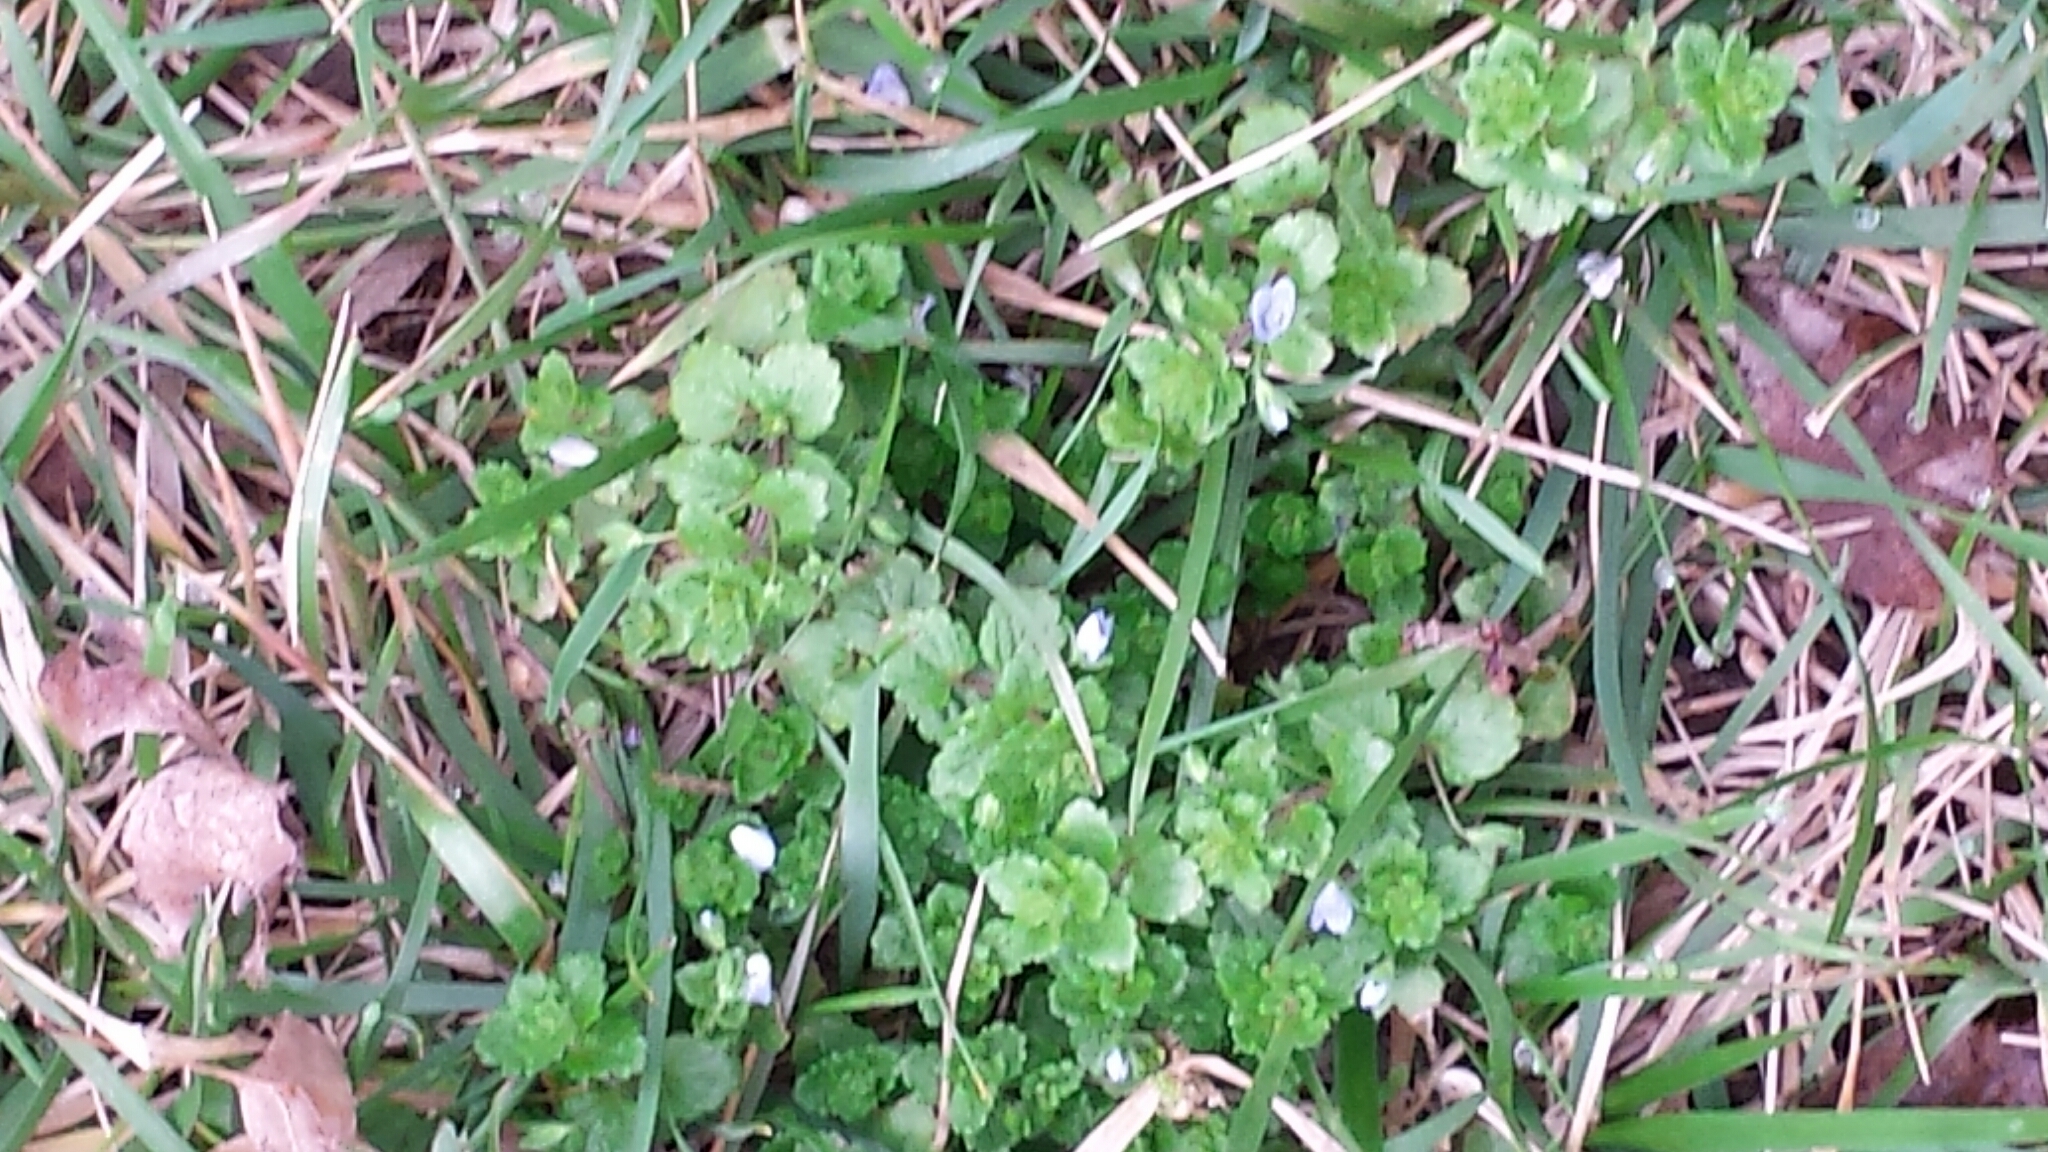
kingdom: Plantae
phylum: Tracheophyta
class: Magnoliopsida
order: Lamiales
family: Plantaginaceae
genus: Veronica
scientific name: Veronica persica
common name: Common field-speedwell
